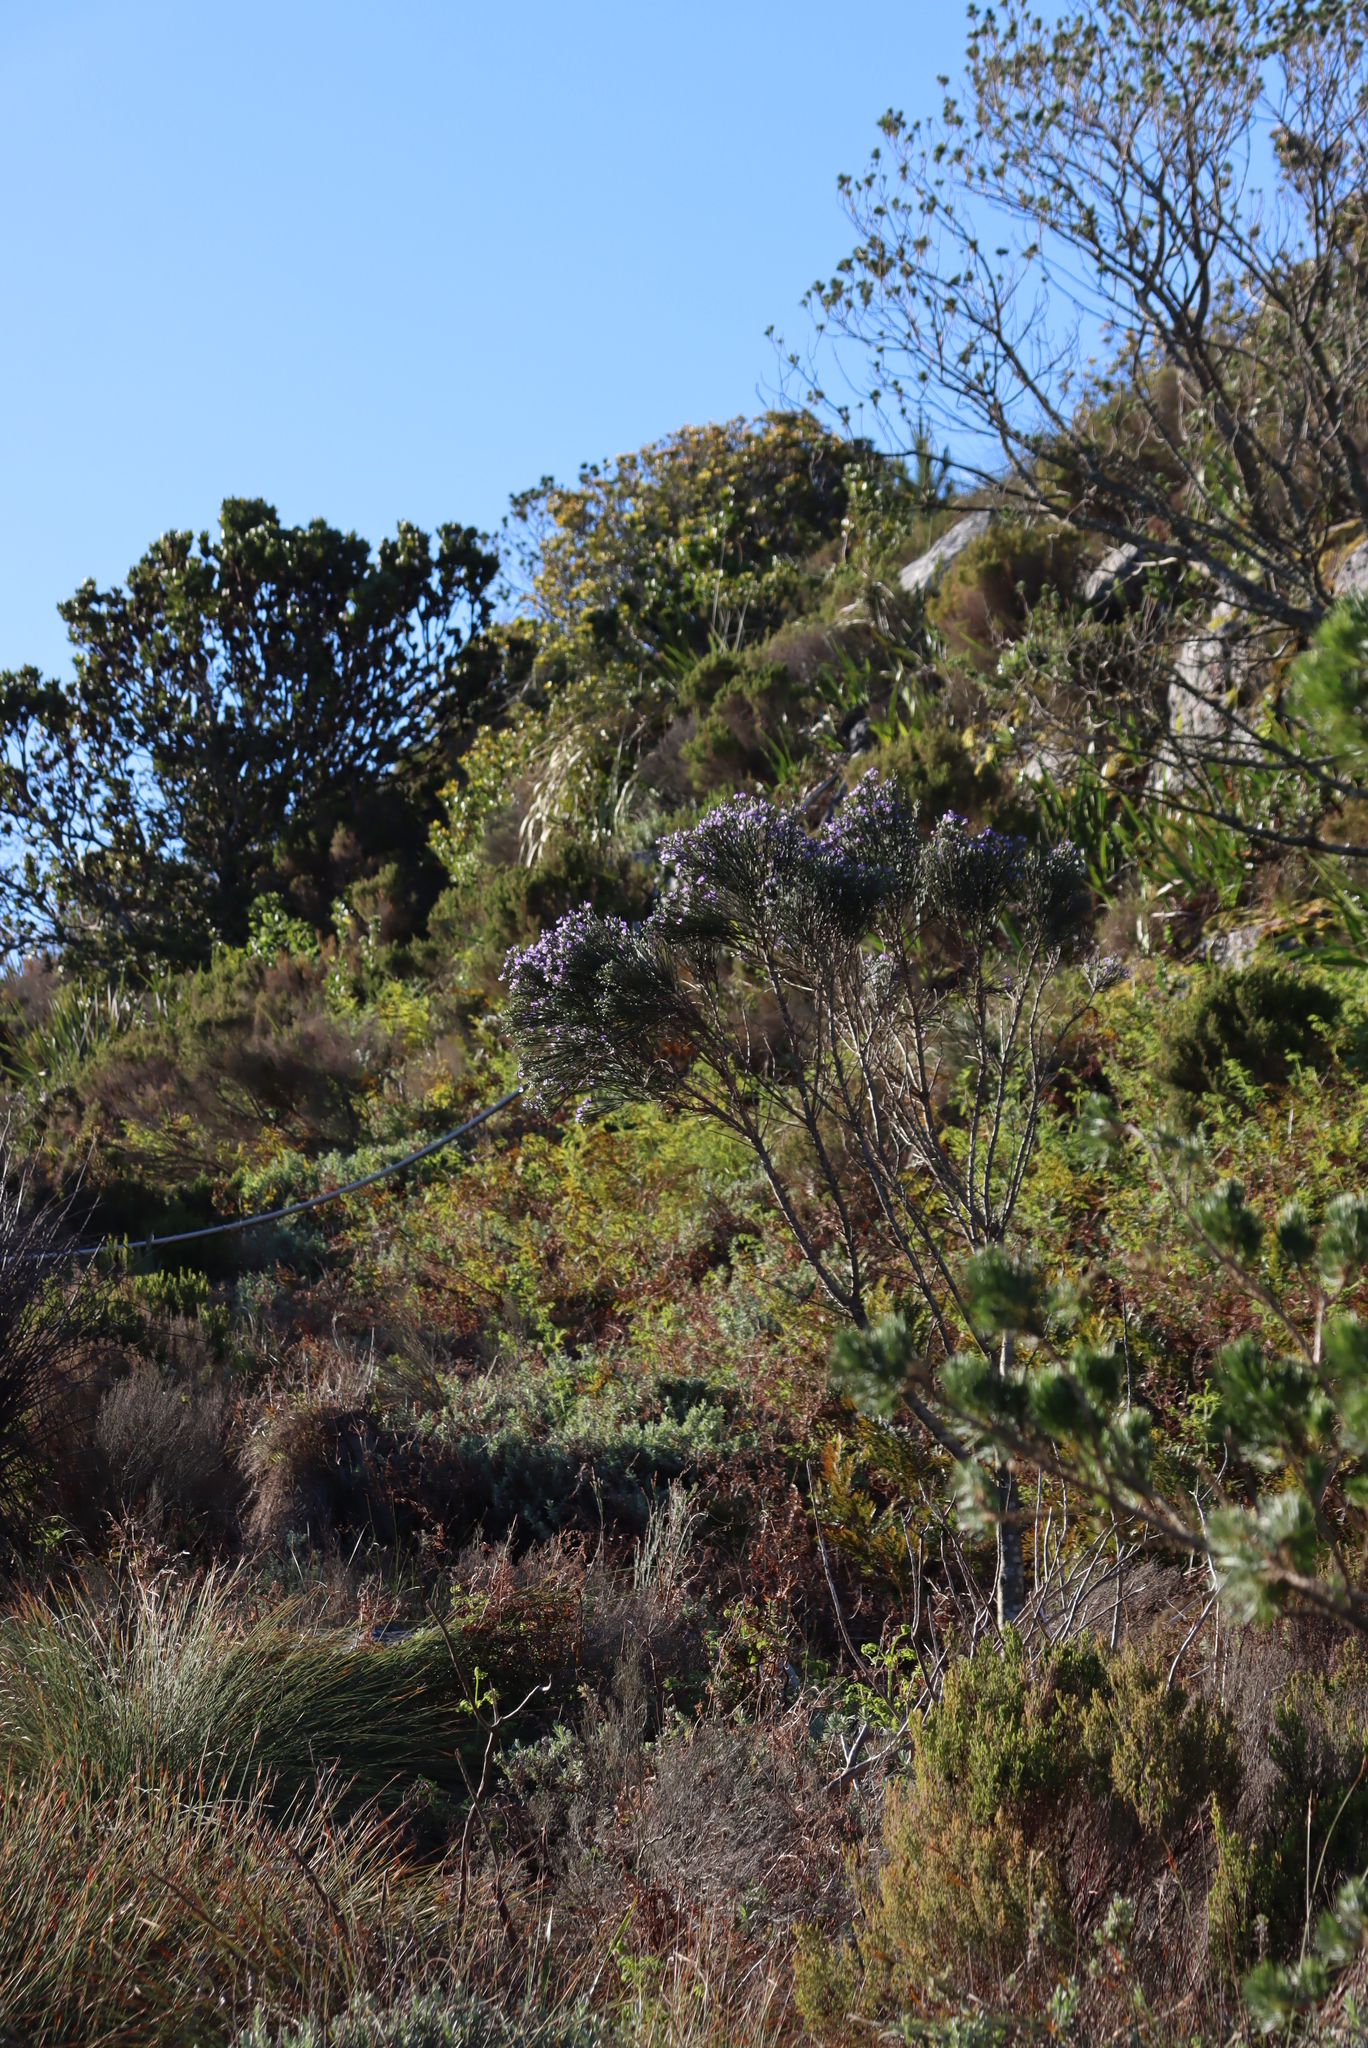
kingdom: Plantae
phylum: Tracheophyta
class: Magnoliopsida
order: Fabales
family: Fabaceae
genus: Psoralea
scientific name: Psoralea congesta
